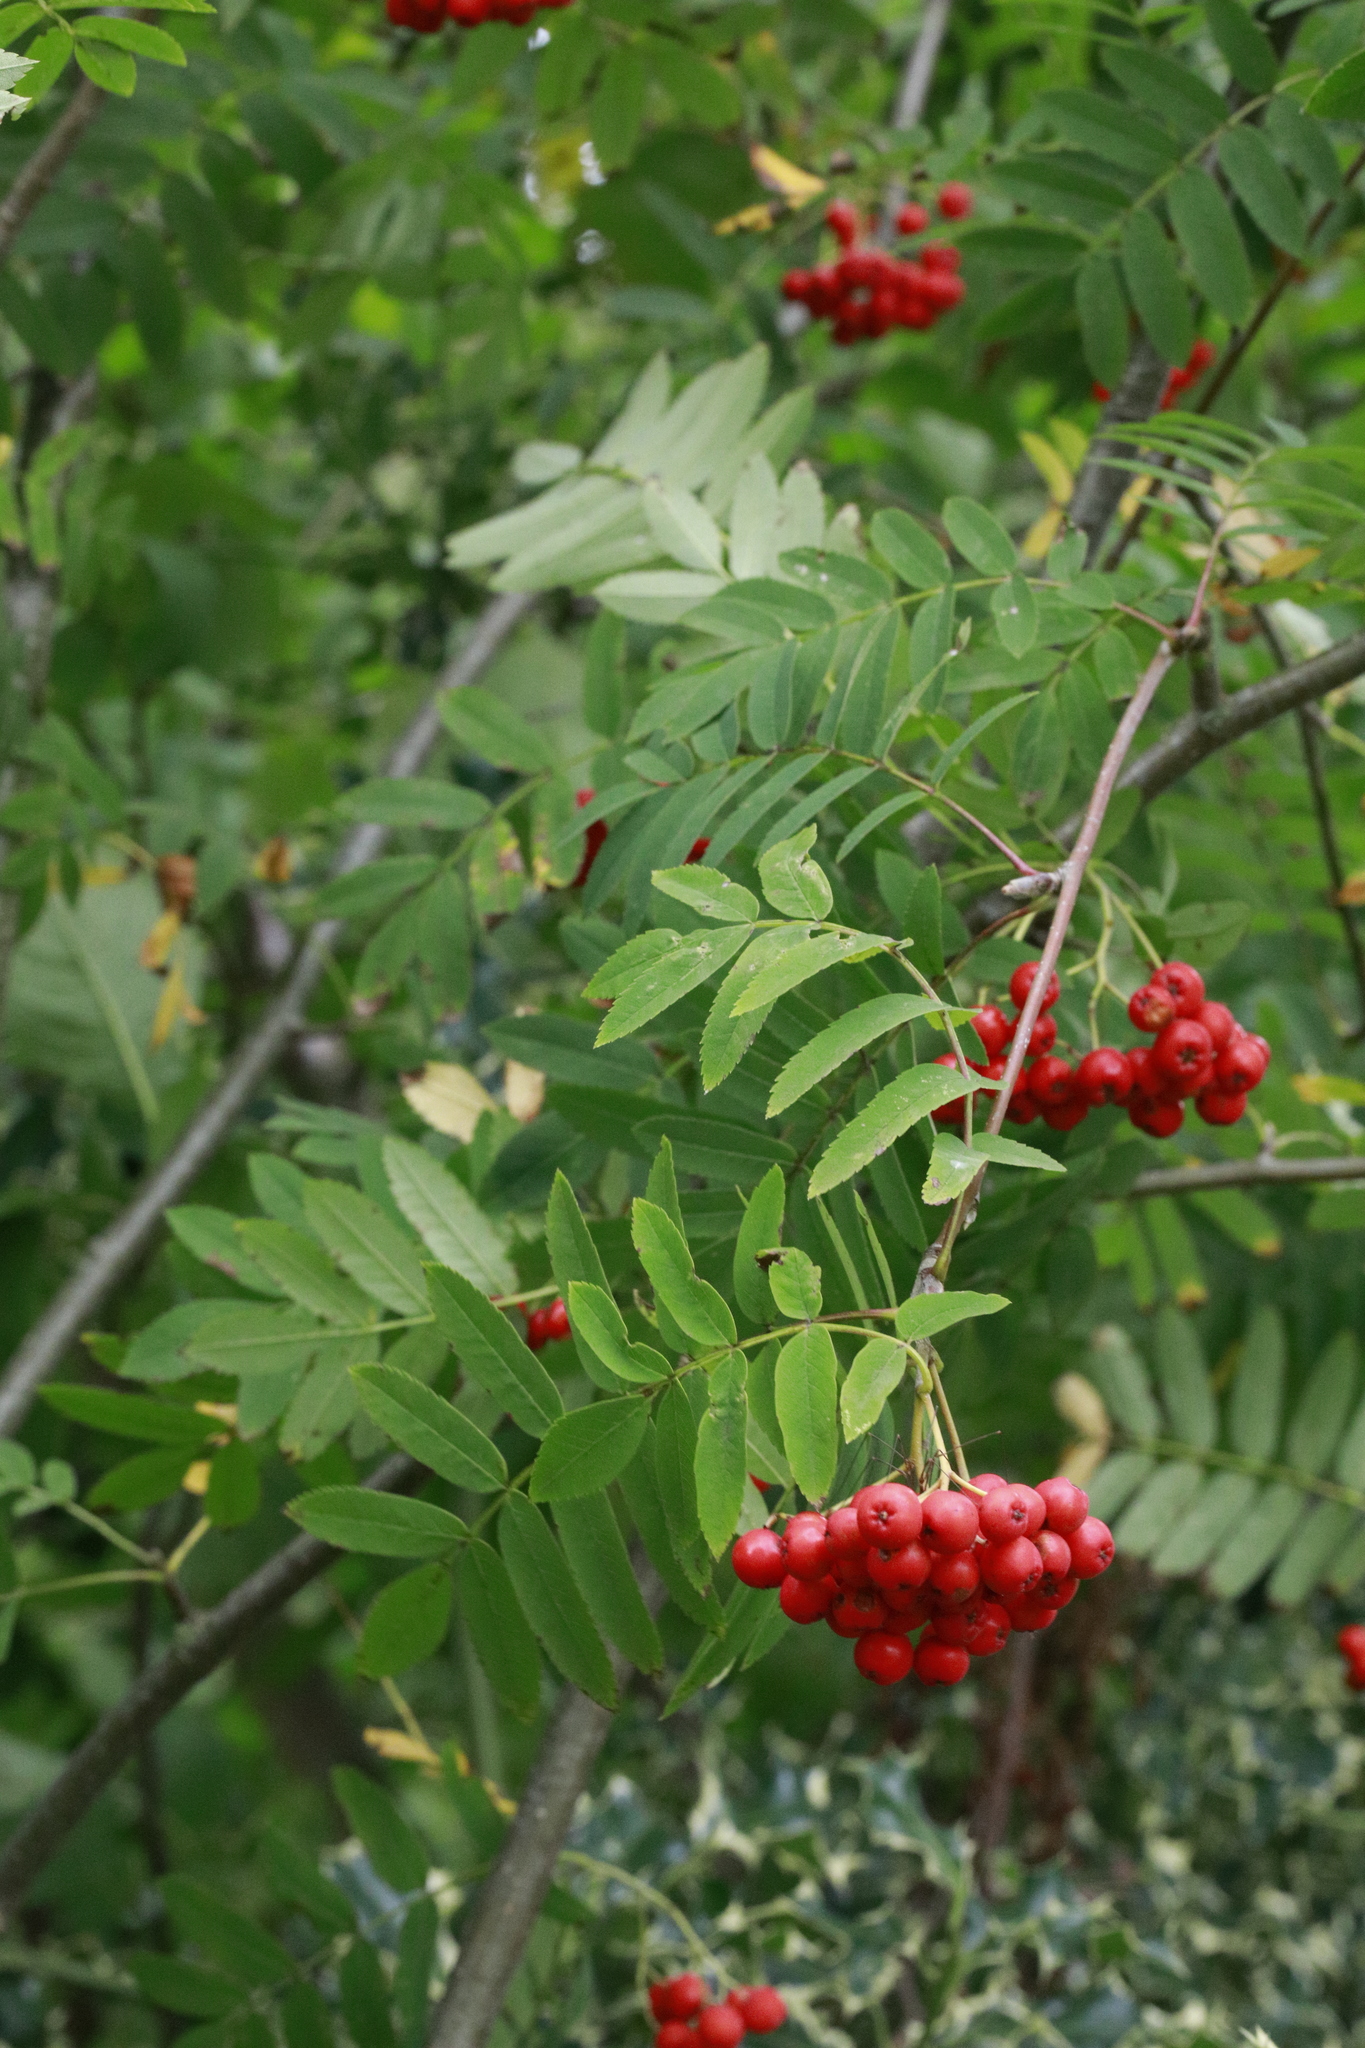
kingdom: Plantae
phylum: Tracheophyta
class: Magnoliopsida
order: Rosales
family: Rosaceae
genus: Sorbus
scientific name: Sorbus aucuparia
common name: Rowan
